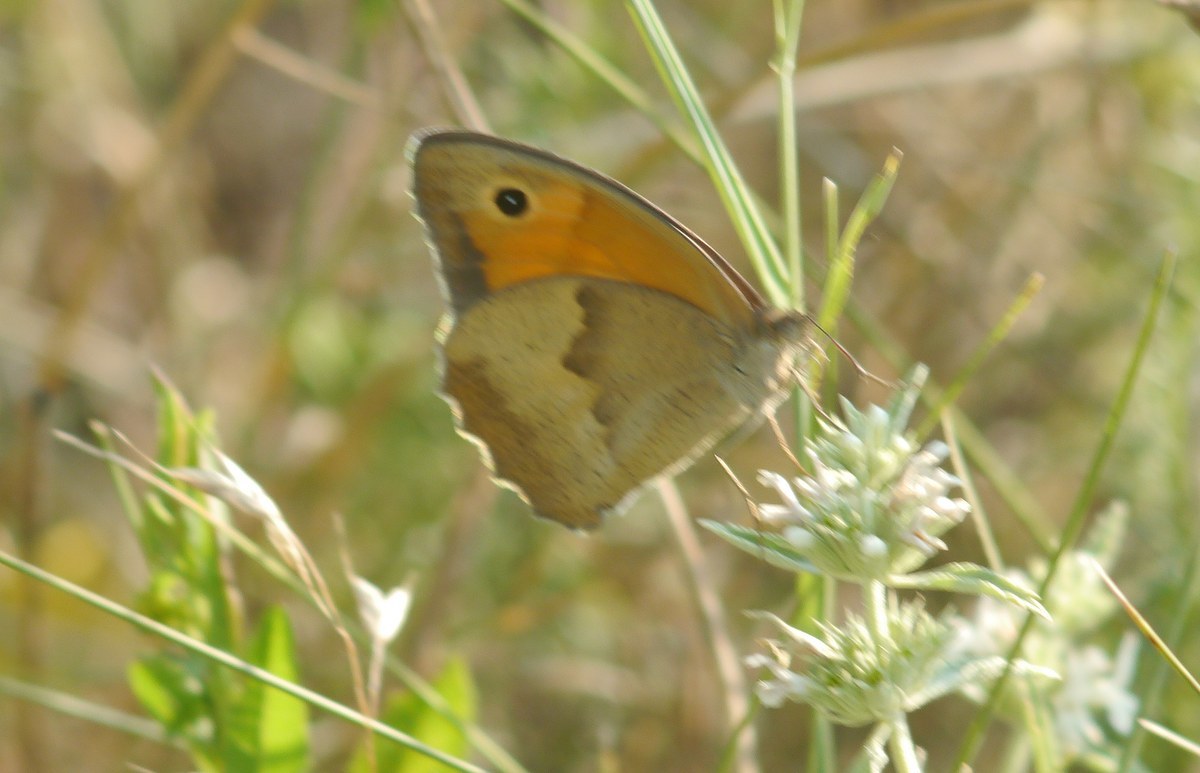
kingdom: Animalia
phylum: Arthropoda
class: Insecta
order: Lepidoptera
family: Nymphalidae
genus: Maniola
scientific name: Maniola jurtina
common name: Meadow brown
